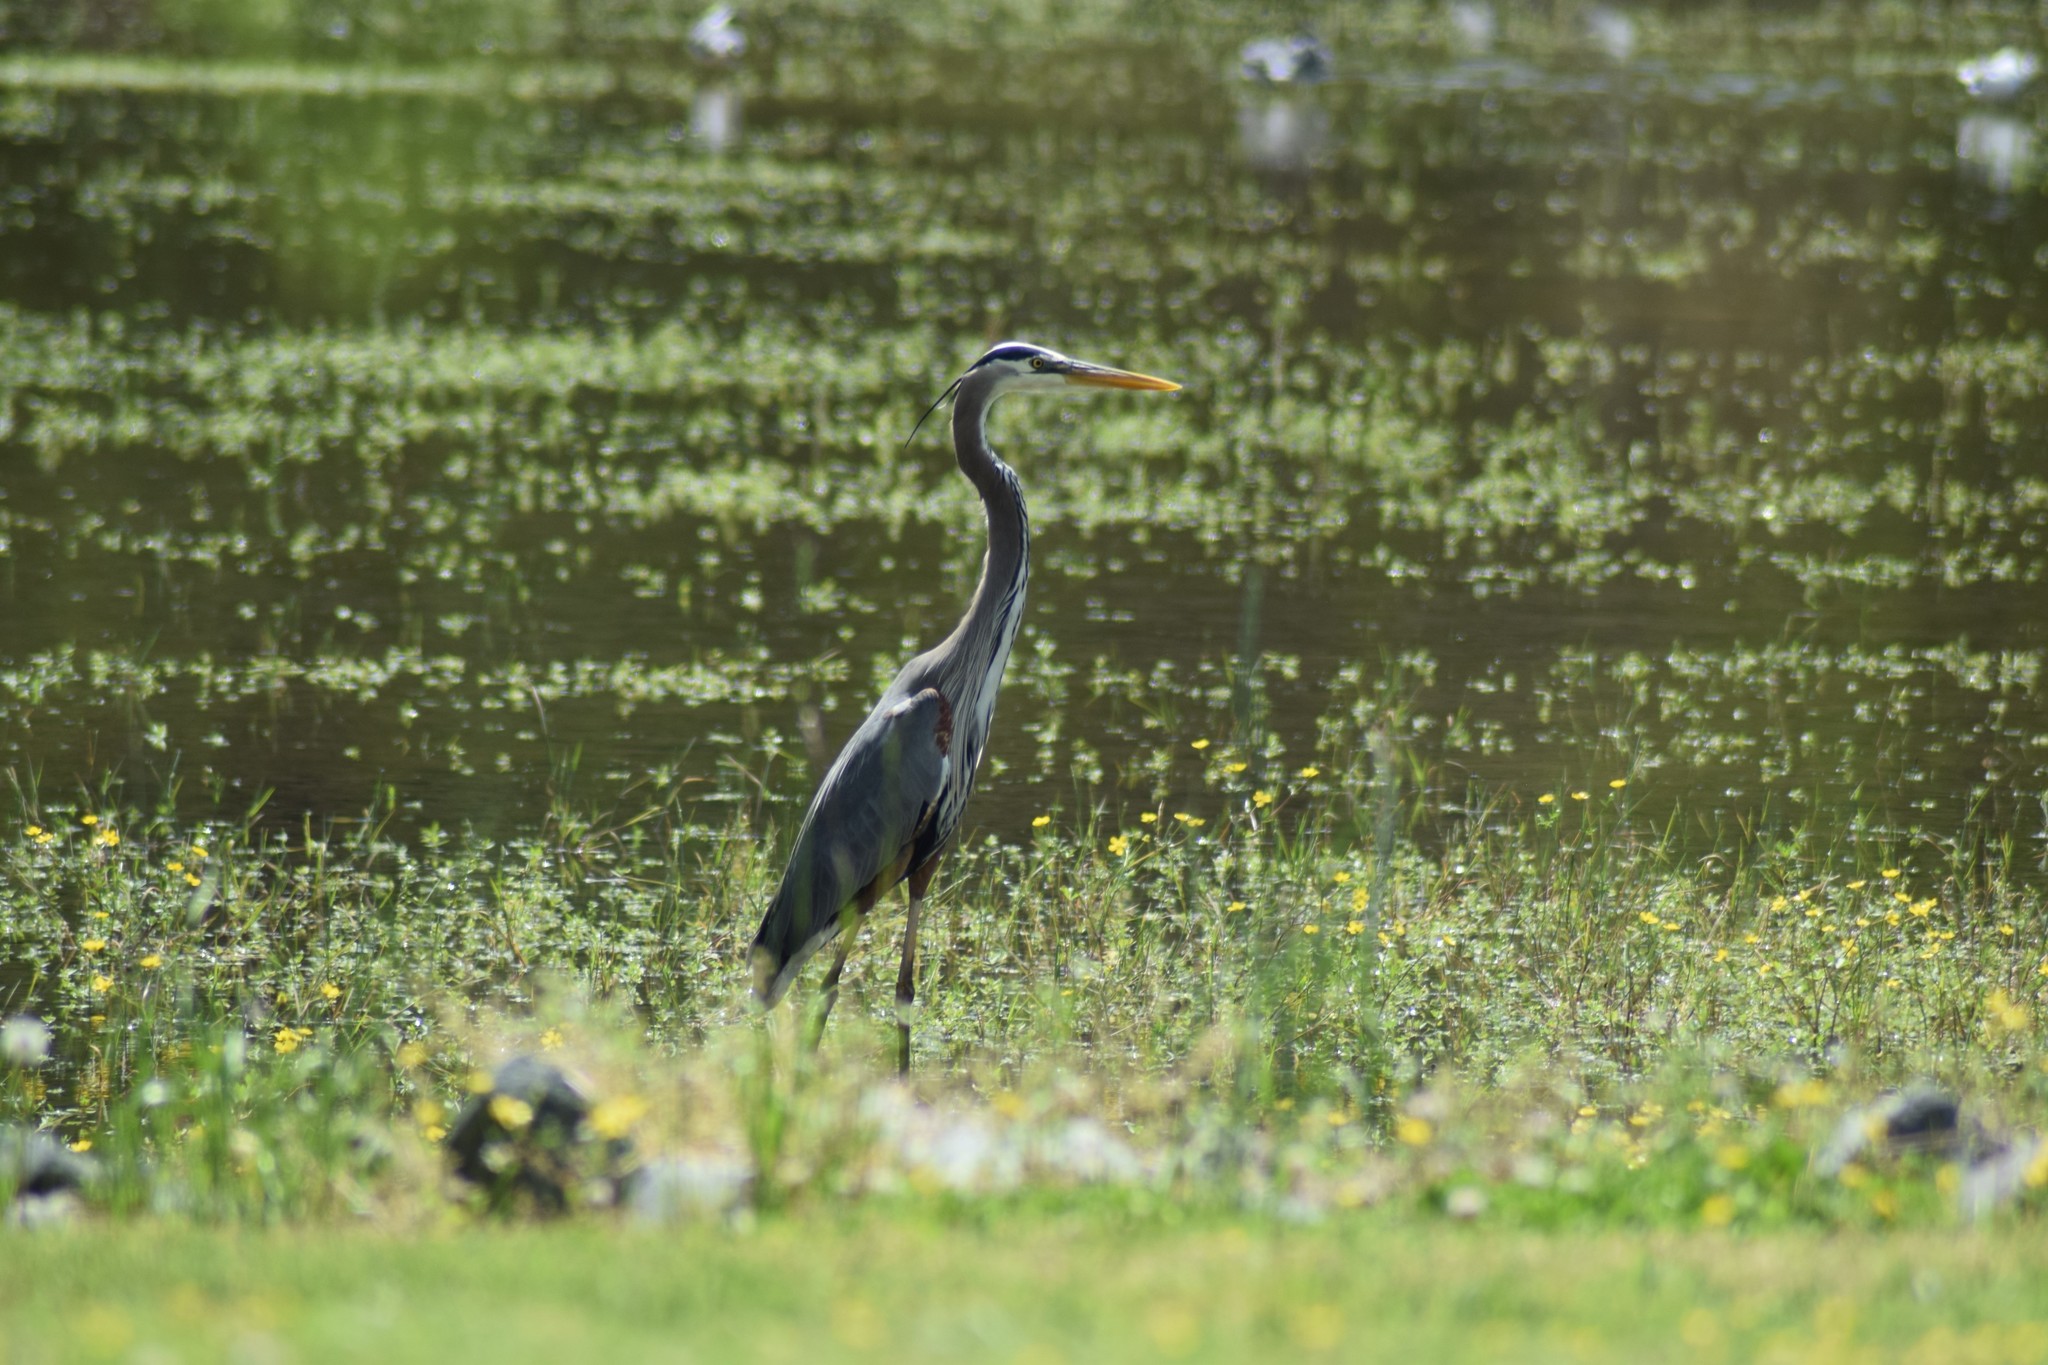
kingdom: Animalia
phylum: Chordata
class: Aves
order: Pelecaniformes
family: Ardeidae
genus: Ardea
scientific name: Ardea herodias
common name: Great blue heron
